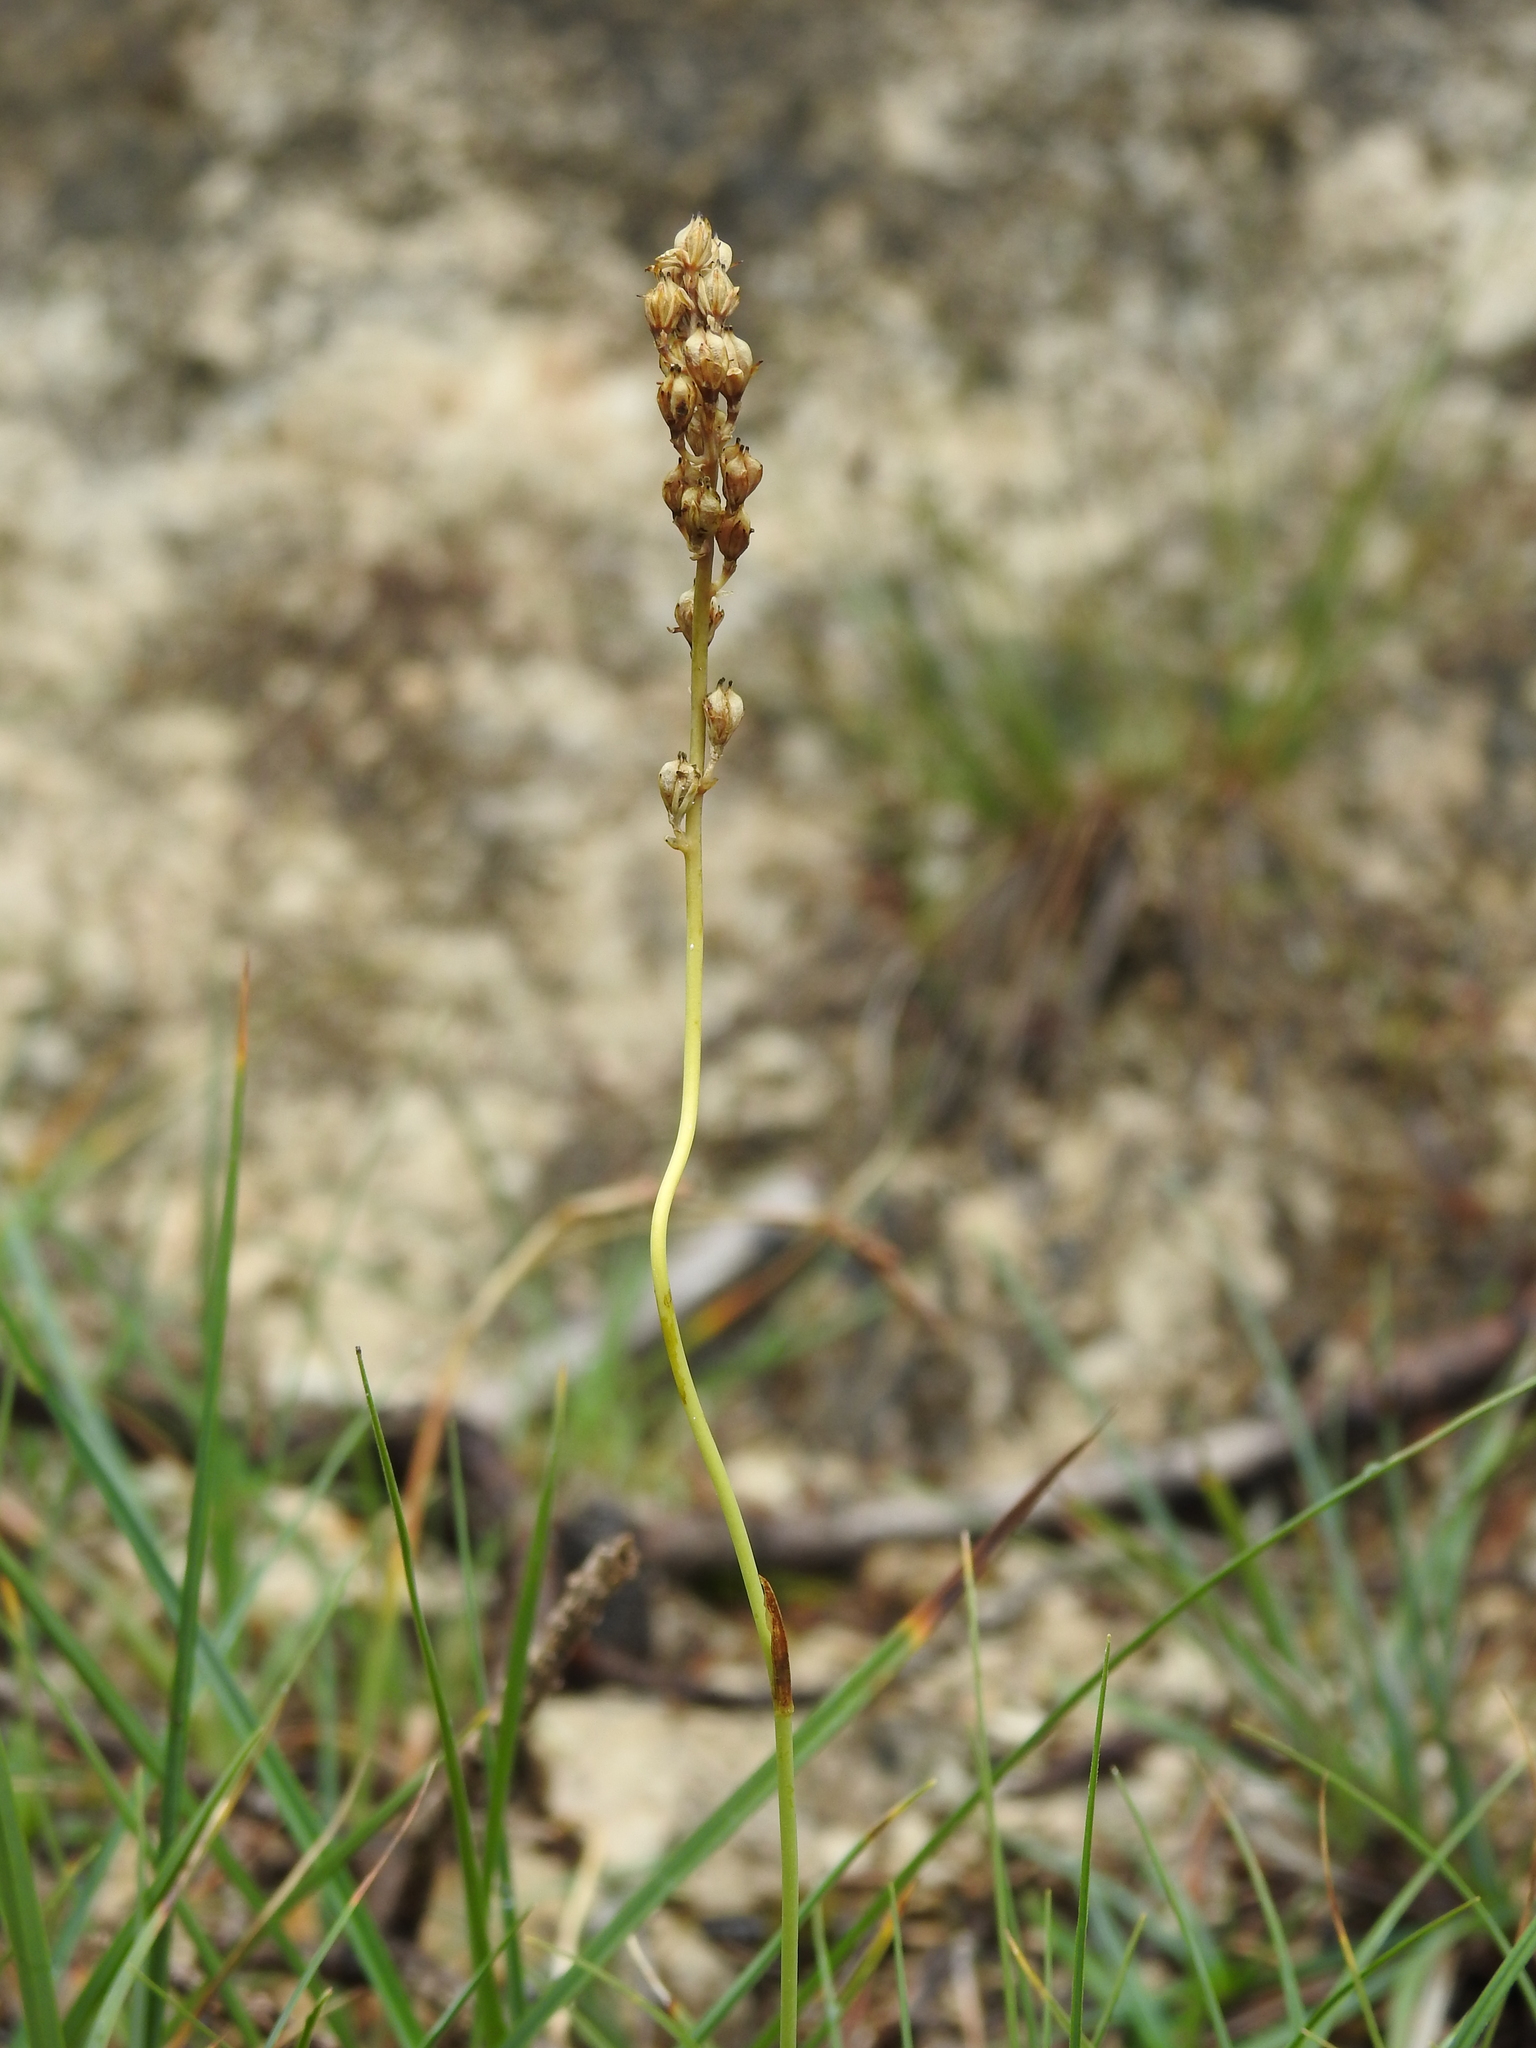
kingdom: Plantae
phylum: Tracheophyta
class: Liliopsida
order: Alismatales
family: Tofieldiaceae
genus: Tofieldia
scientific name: Tofieldia calyculata
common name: German-asphodel
